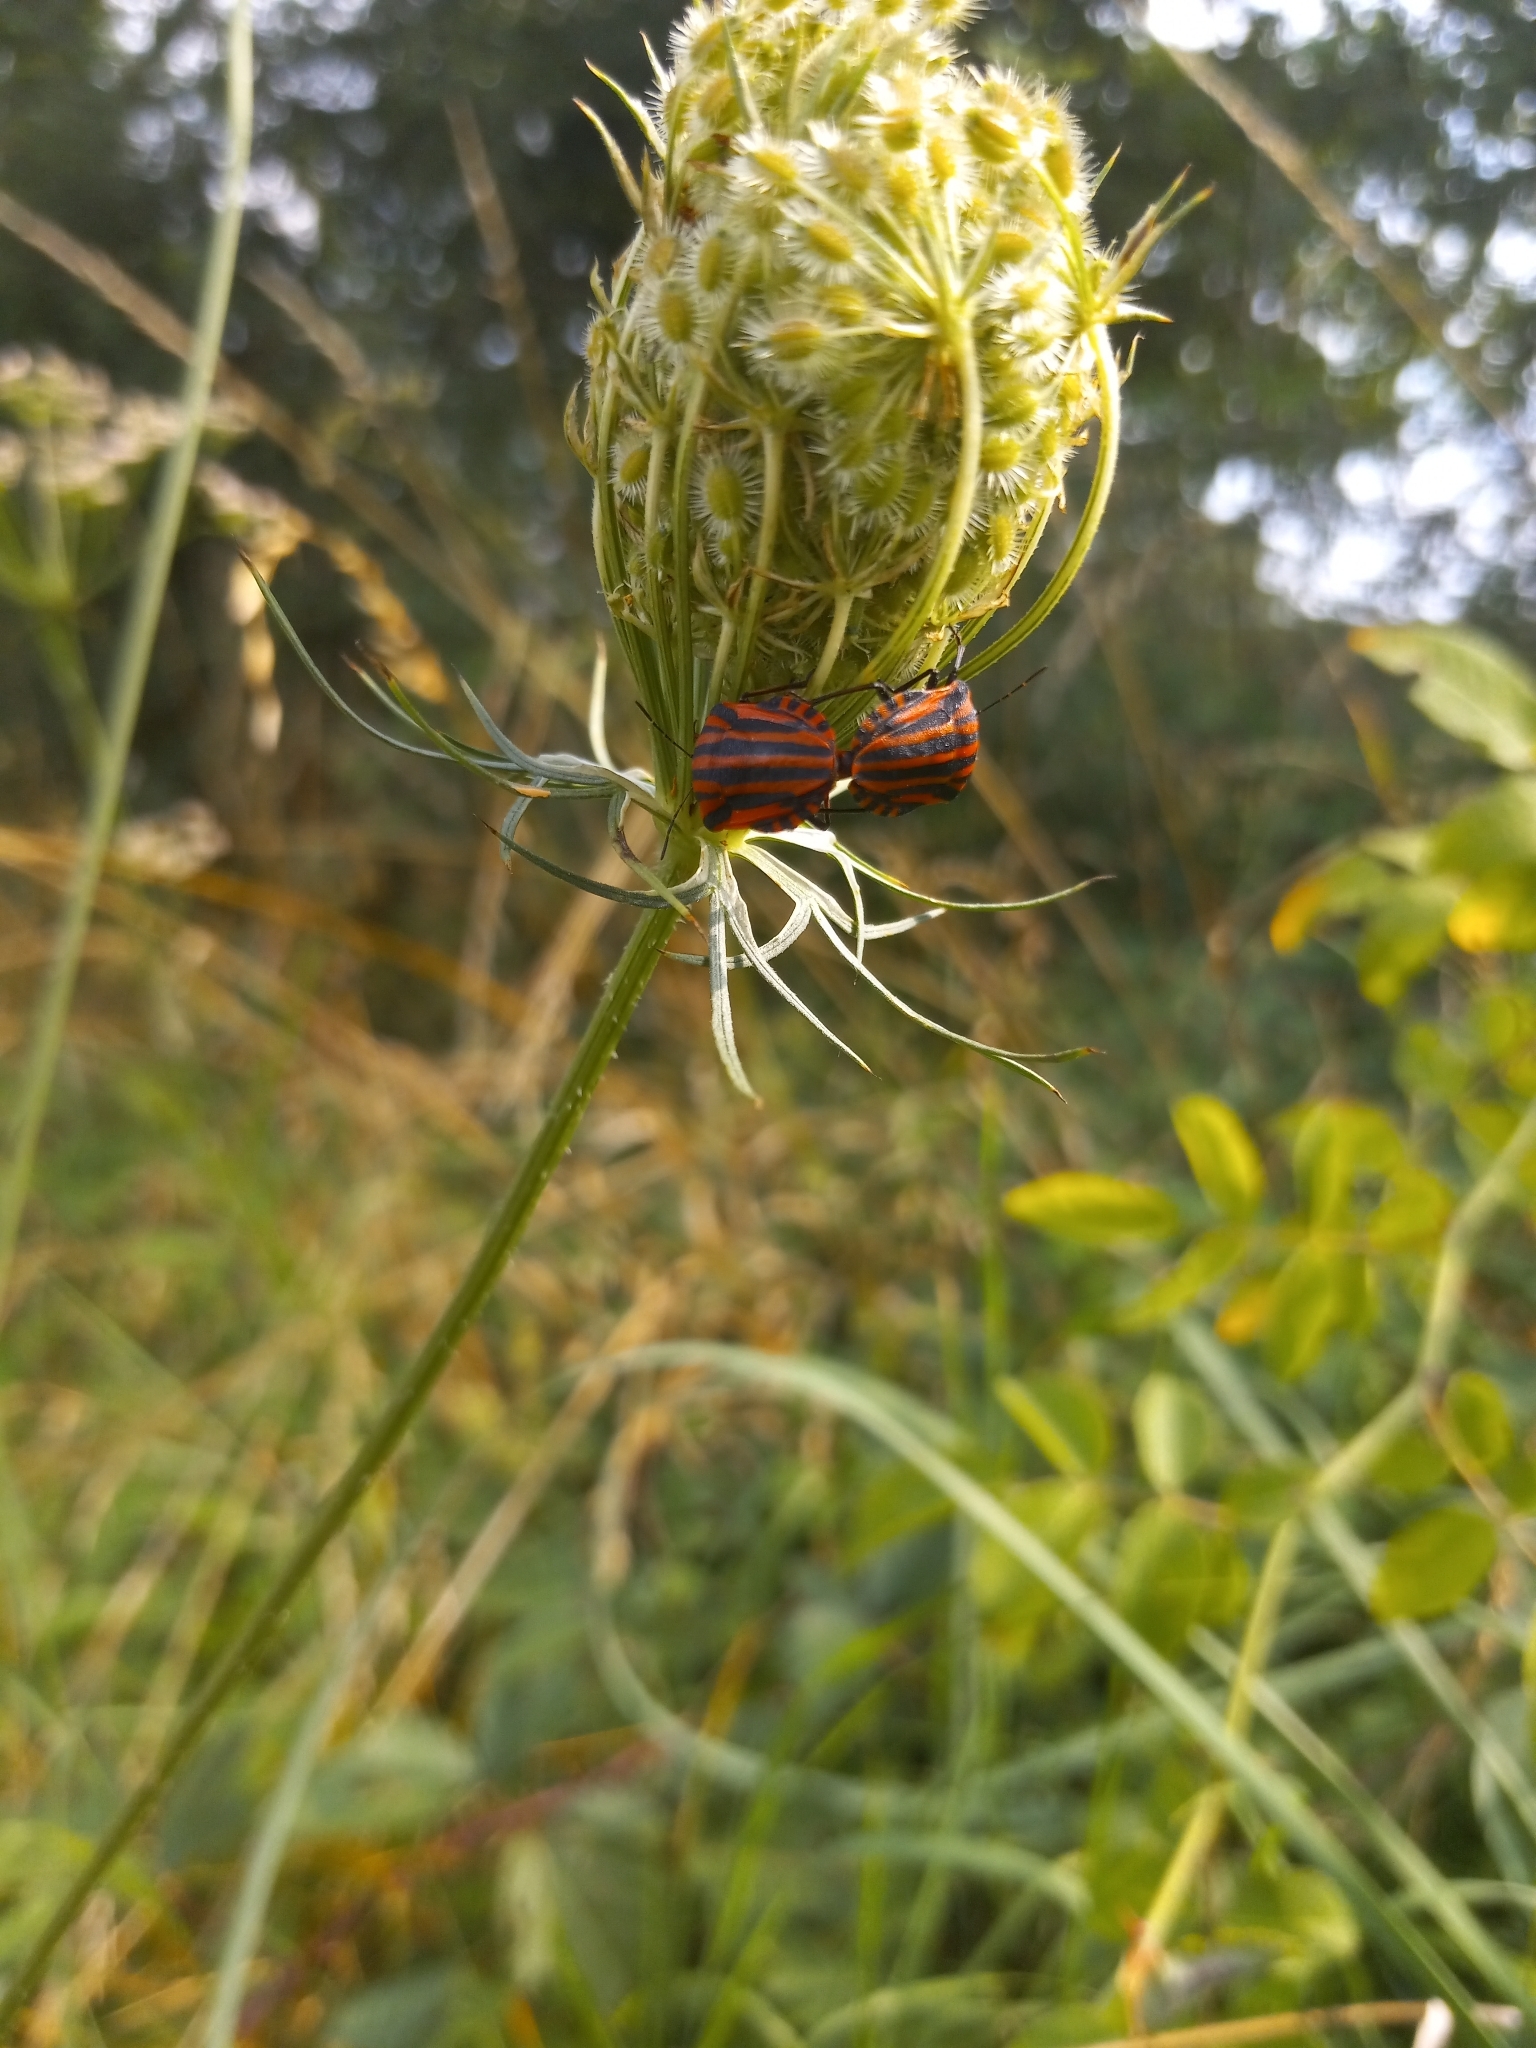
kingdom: Animalia
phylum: Arthropoda
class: Insecta
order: Hemiptera
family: Pentatomidae
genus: Graphosoma
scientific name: Graphosoma italicum
